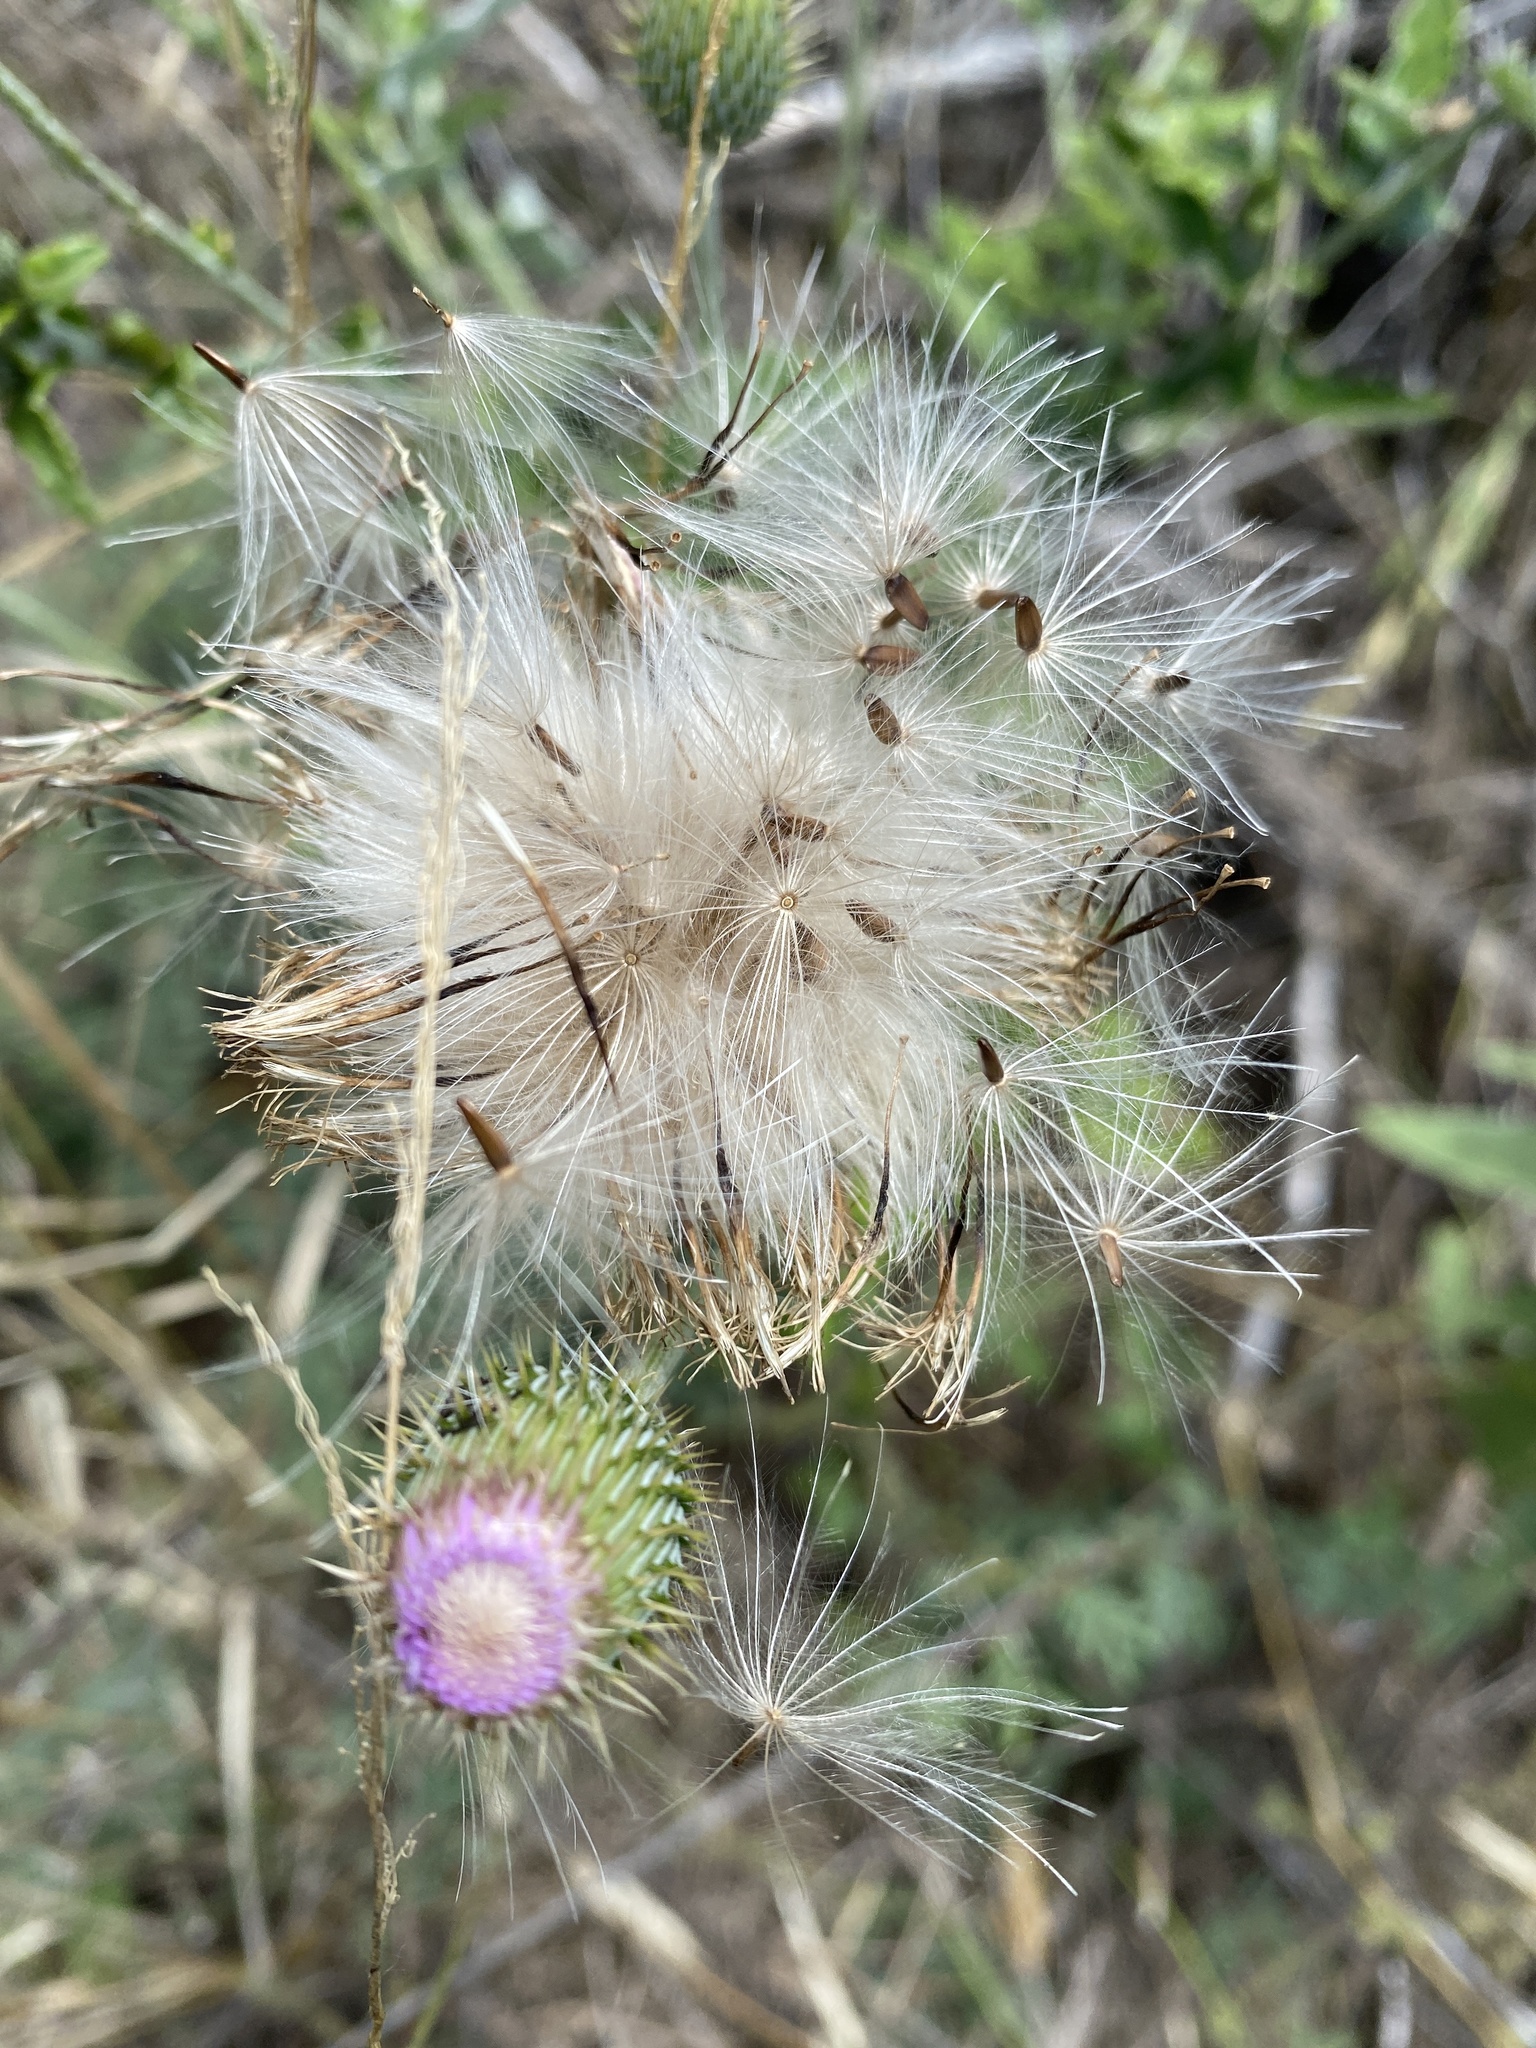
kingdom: Plantae
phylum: Tracheophyta
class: Magnoliopsida
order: Asterales
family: Asteraceae
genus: Cirsium
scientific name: Cirsium texanum
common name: Texas purple thistle
